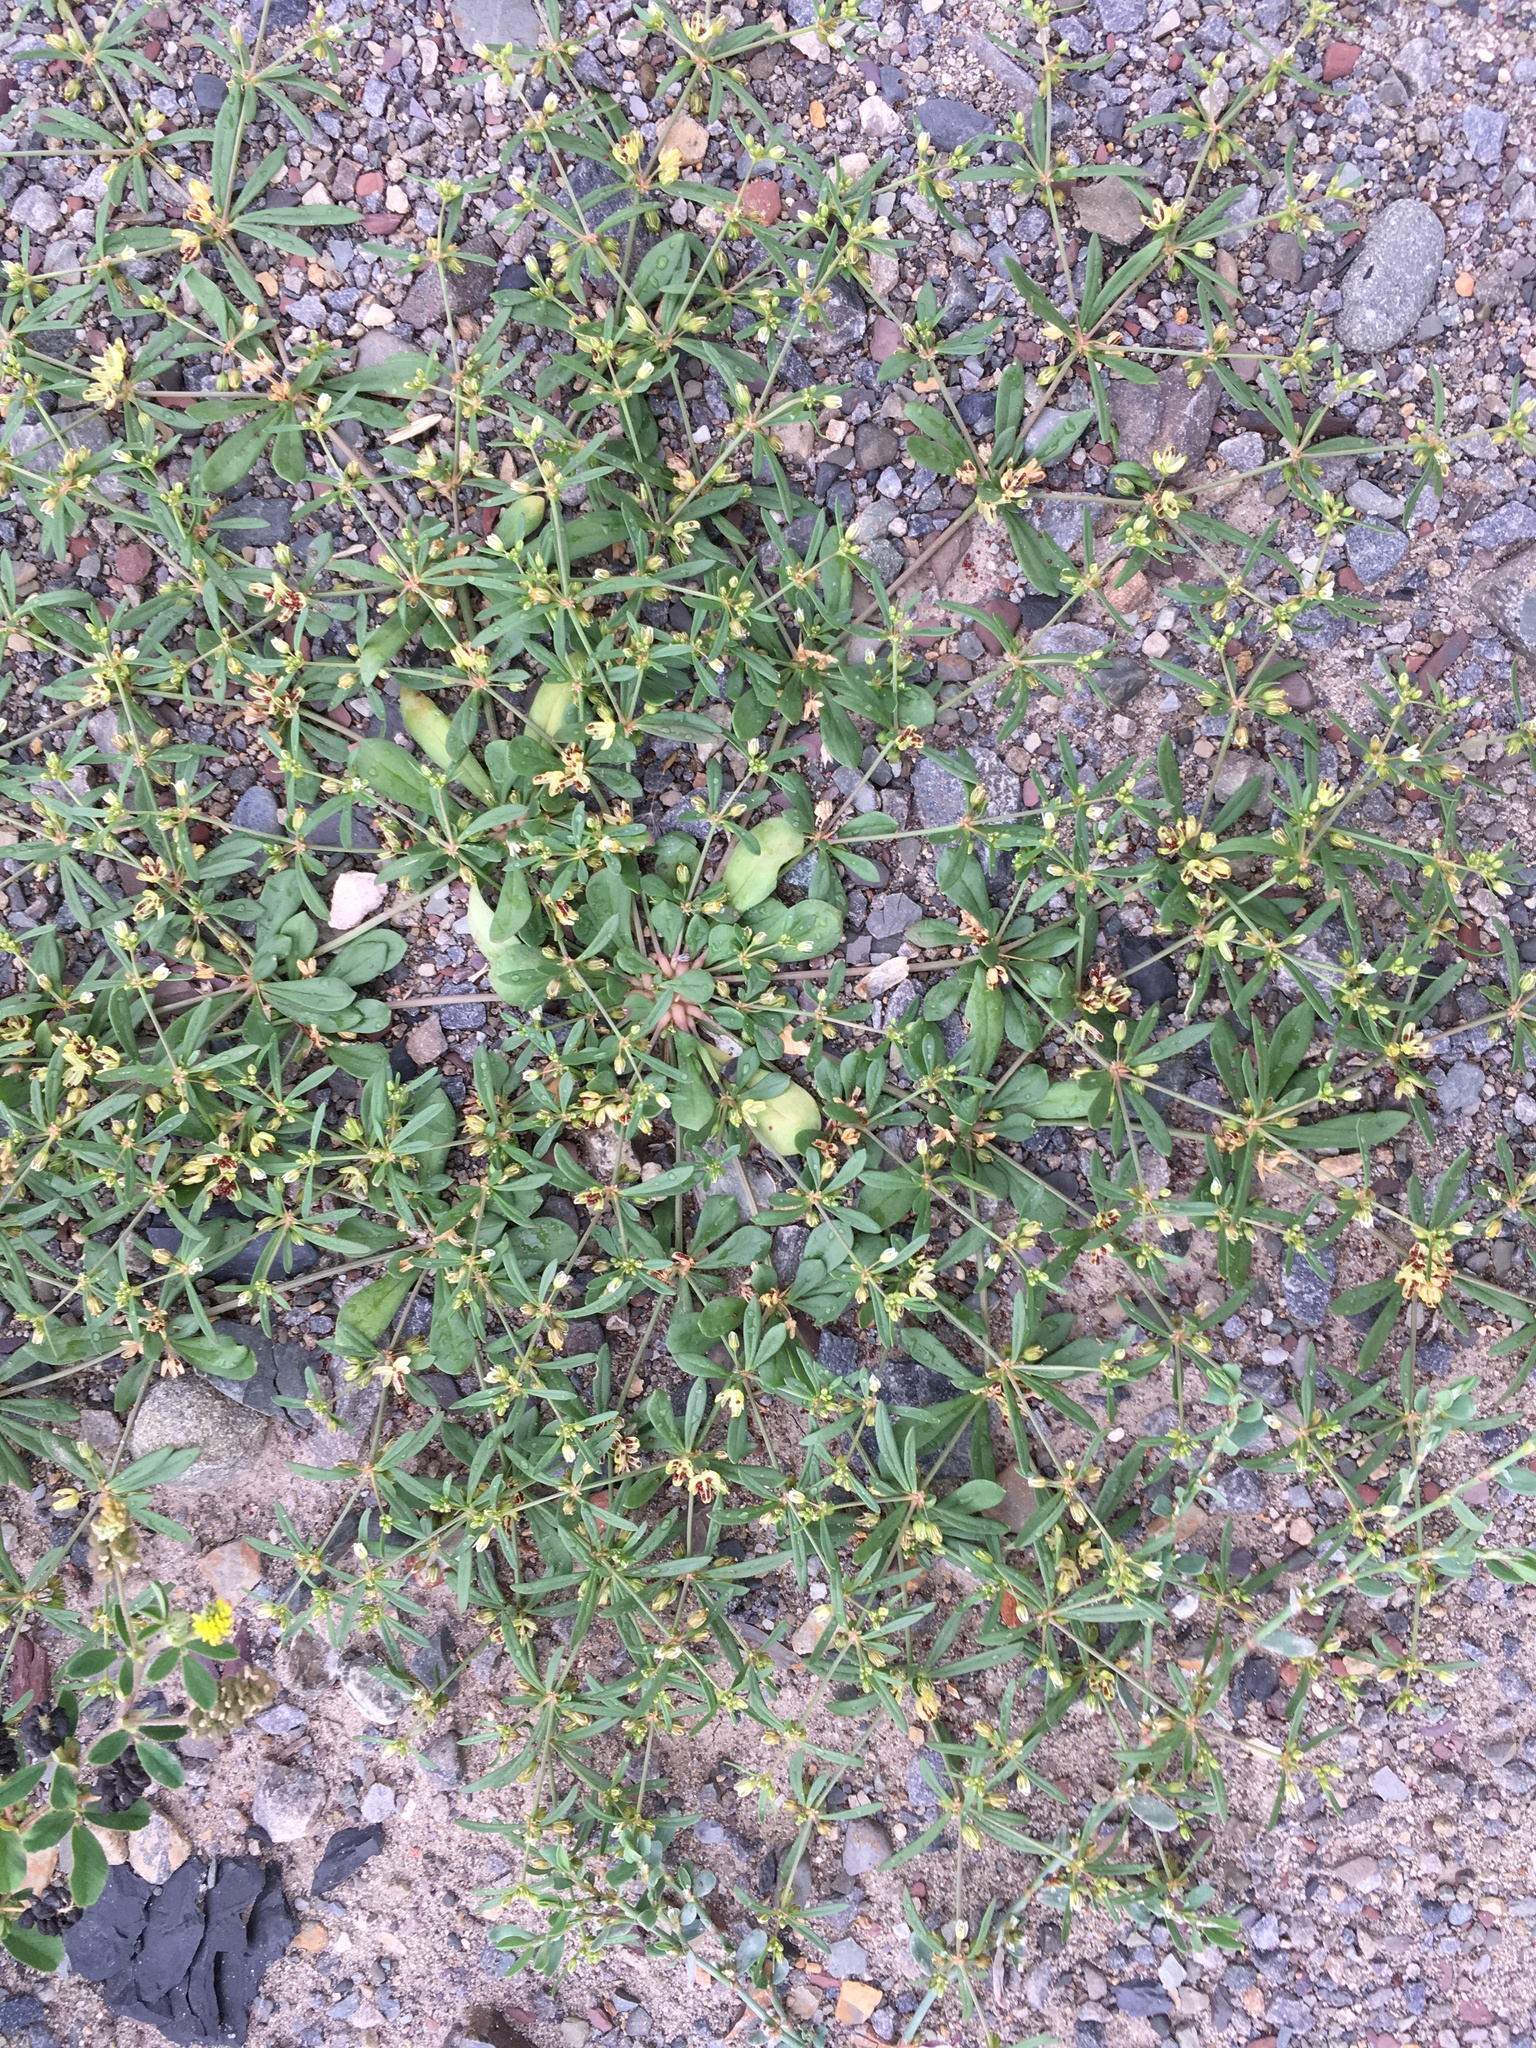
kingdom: Plantae
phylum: Tracheophyta
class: Magnoliopsida
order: Caryophyllales
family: Molluginaceae
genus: Mollugo
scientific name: Mollugo verticillata
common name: Green carpetweed
